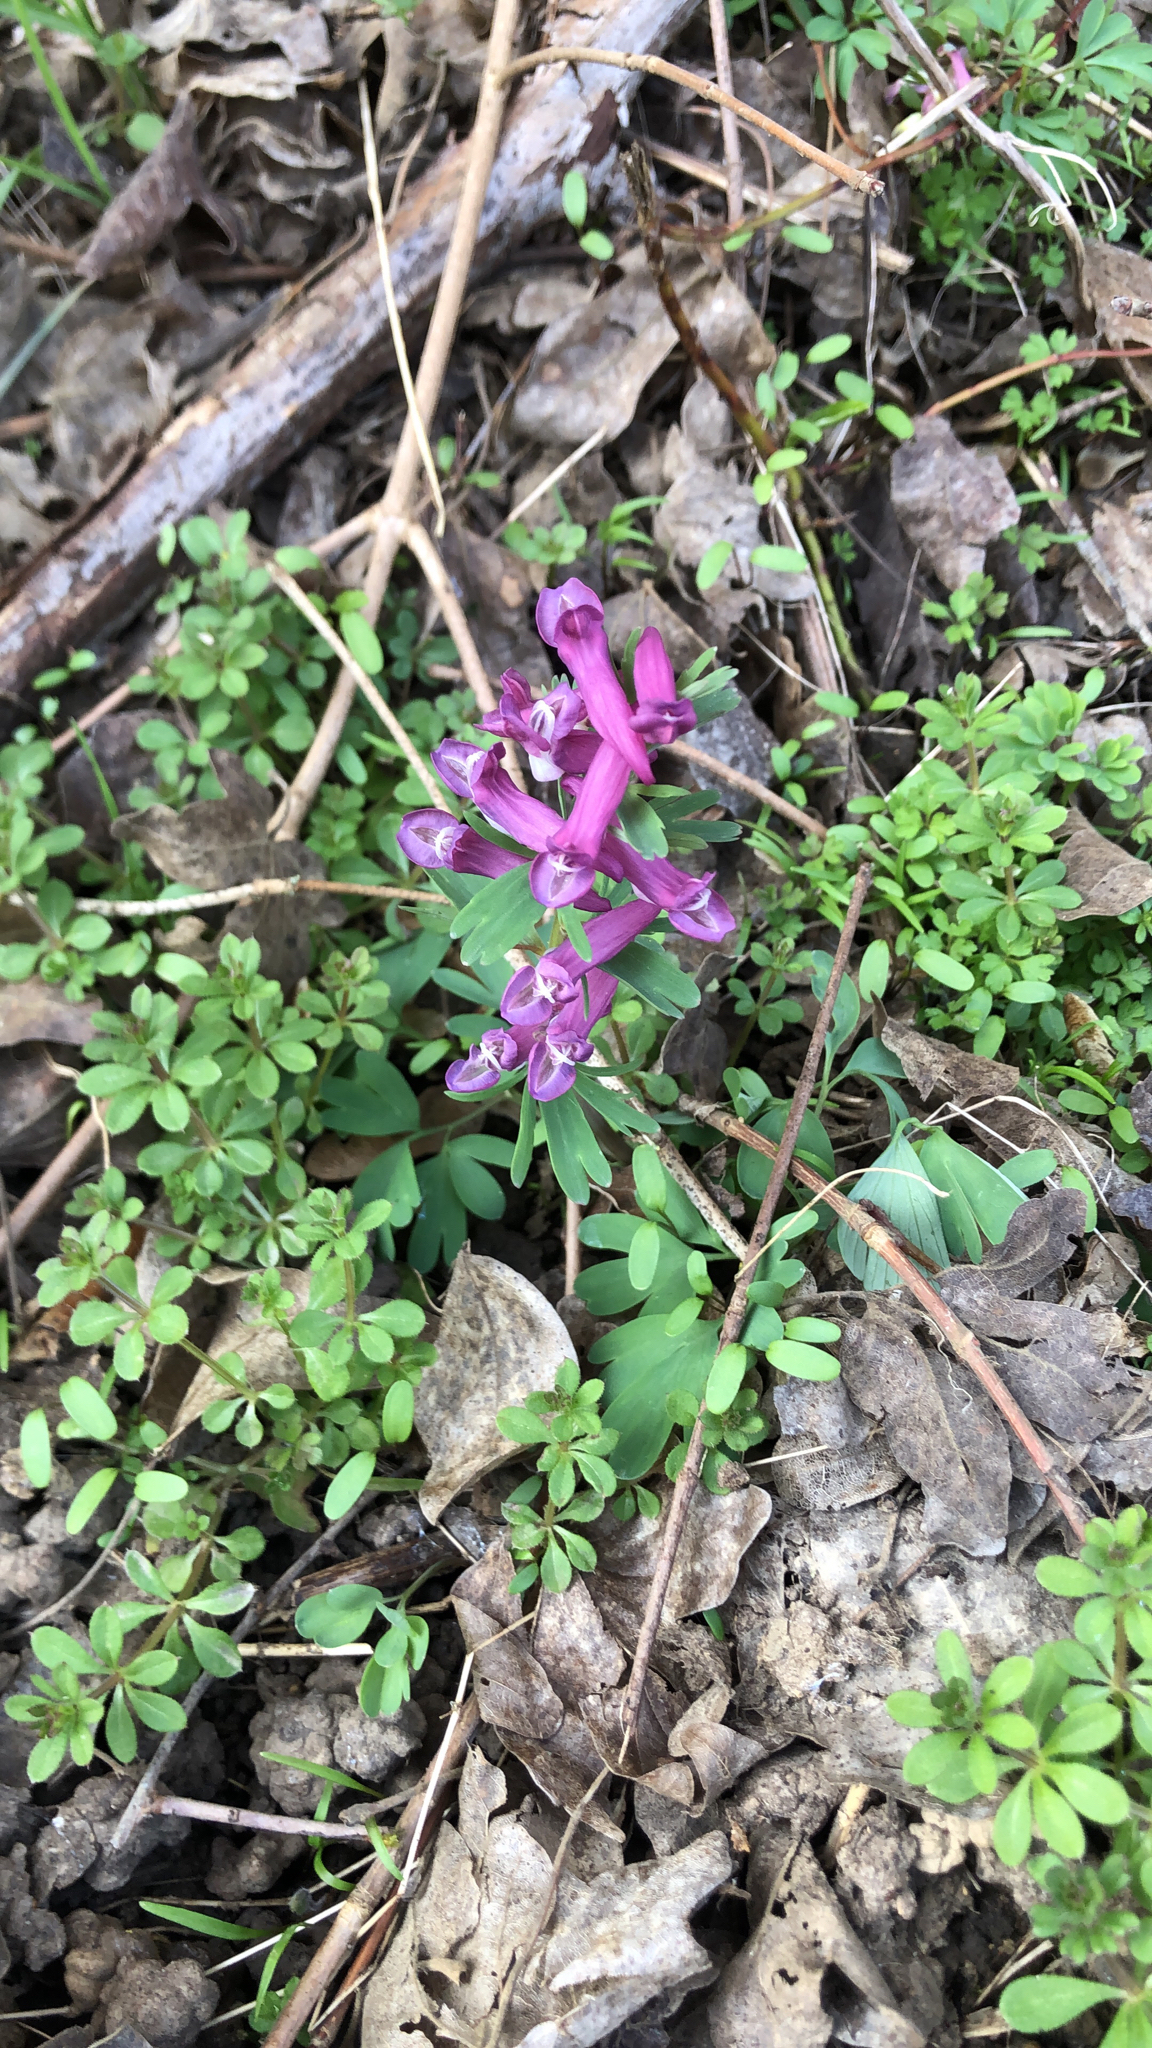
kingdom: Plantae
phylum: Tracheophyta
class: Magnoliopsida
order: Ranunculales
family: Papaveraceae
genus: Corydalis
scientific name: Corydalis solida
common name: Bird-in-a-bush
